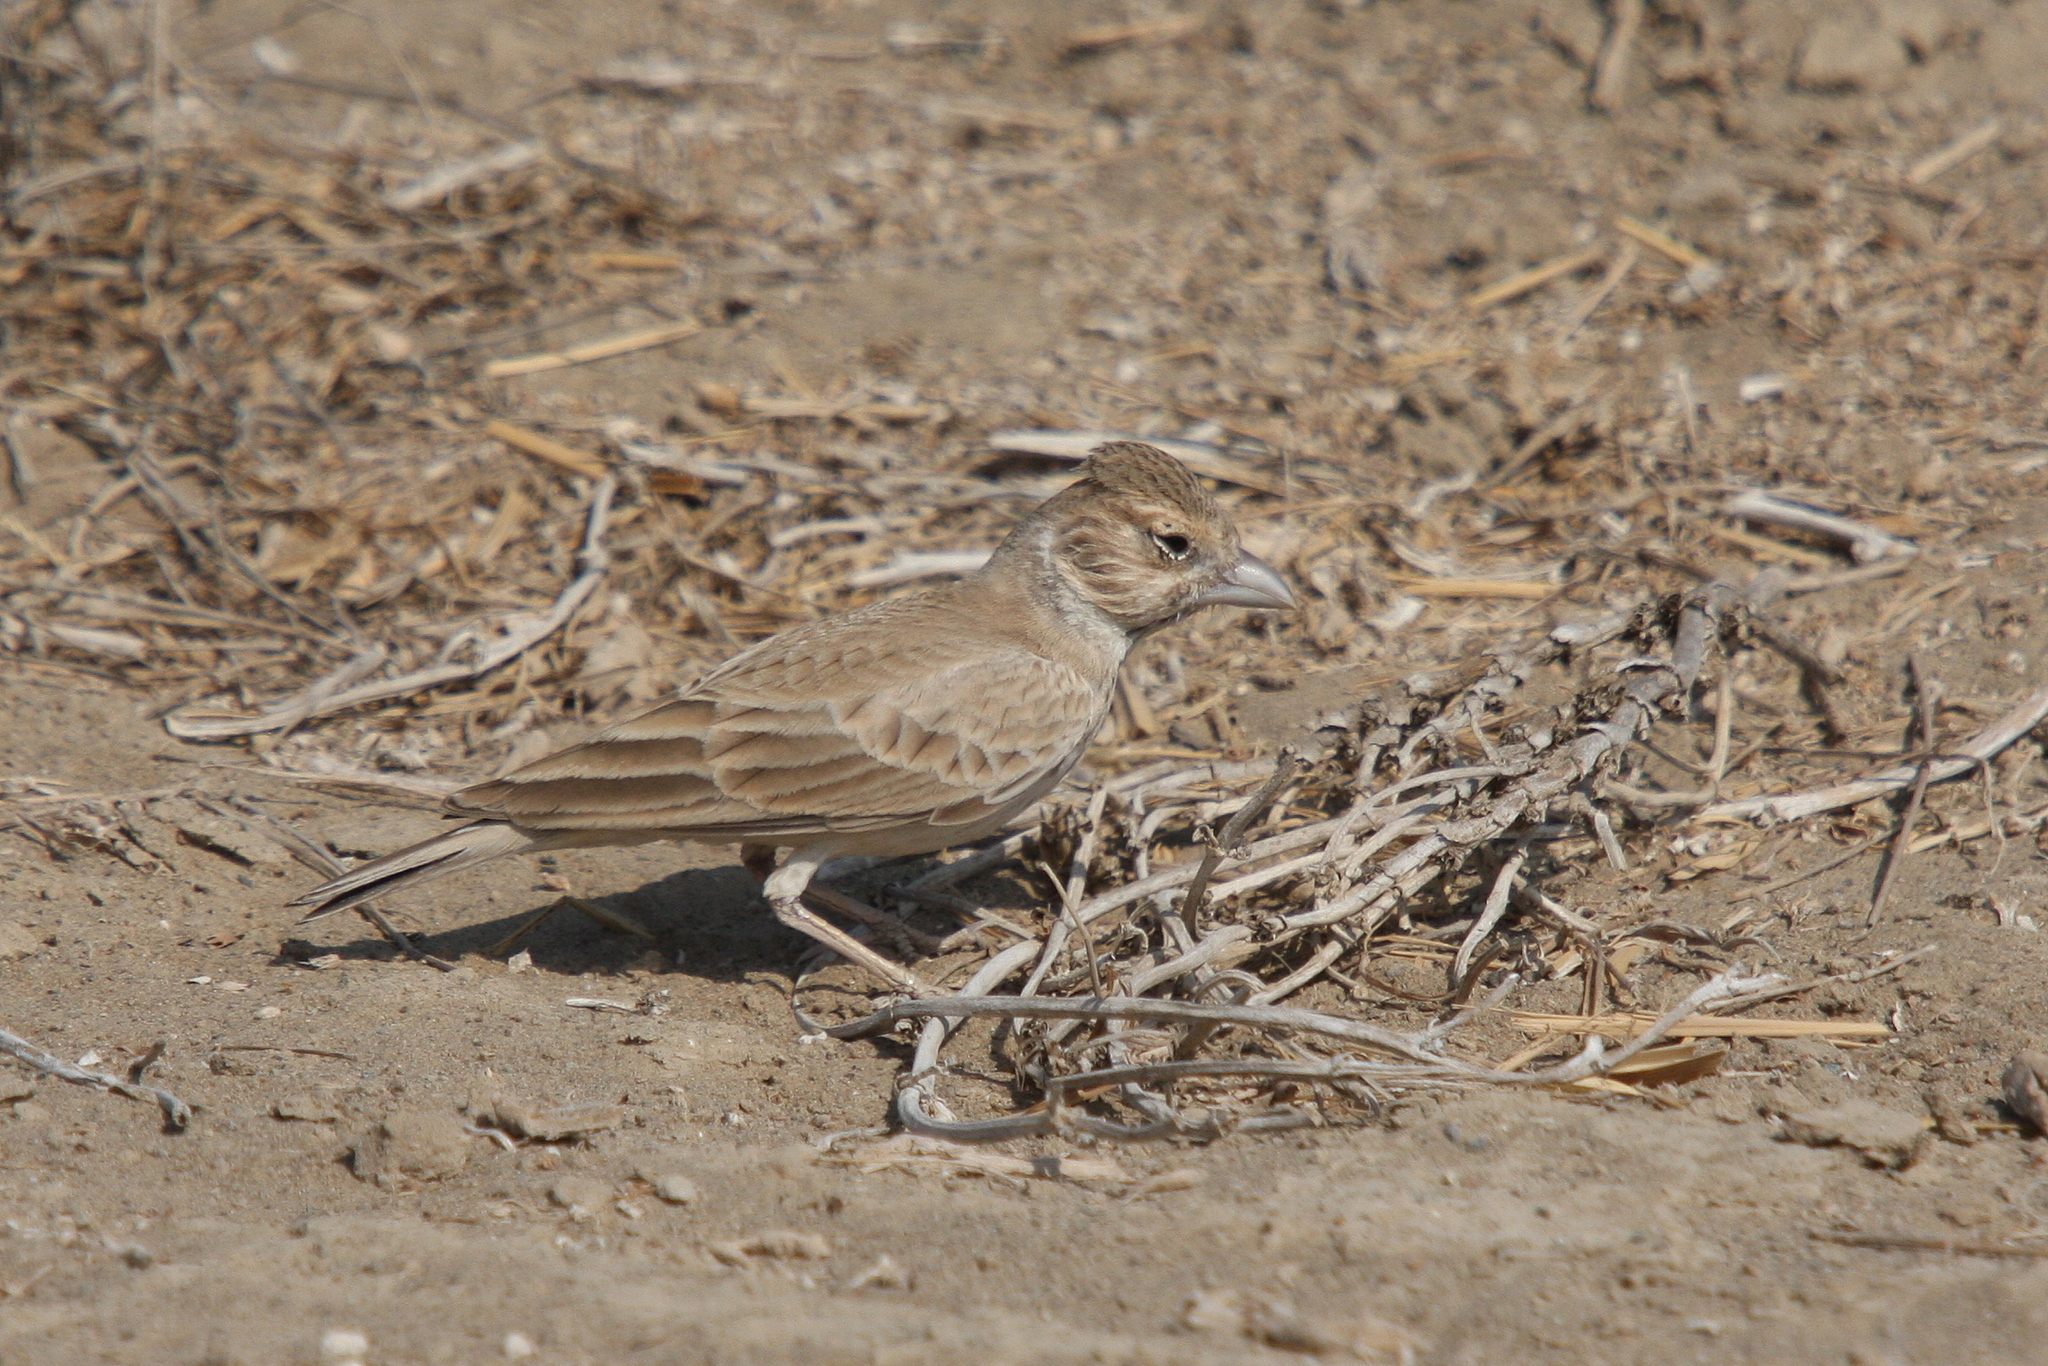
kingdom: Animalia
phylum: Chordata
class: Aves
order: Passeriformes
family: Alaudidae
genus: Eremopterix
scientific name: Eremopterix nigriceps
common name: Black-crowned sparrow-lark
